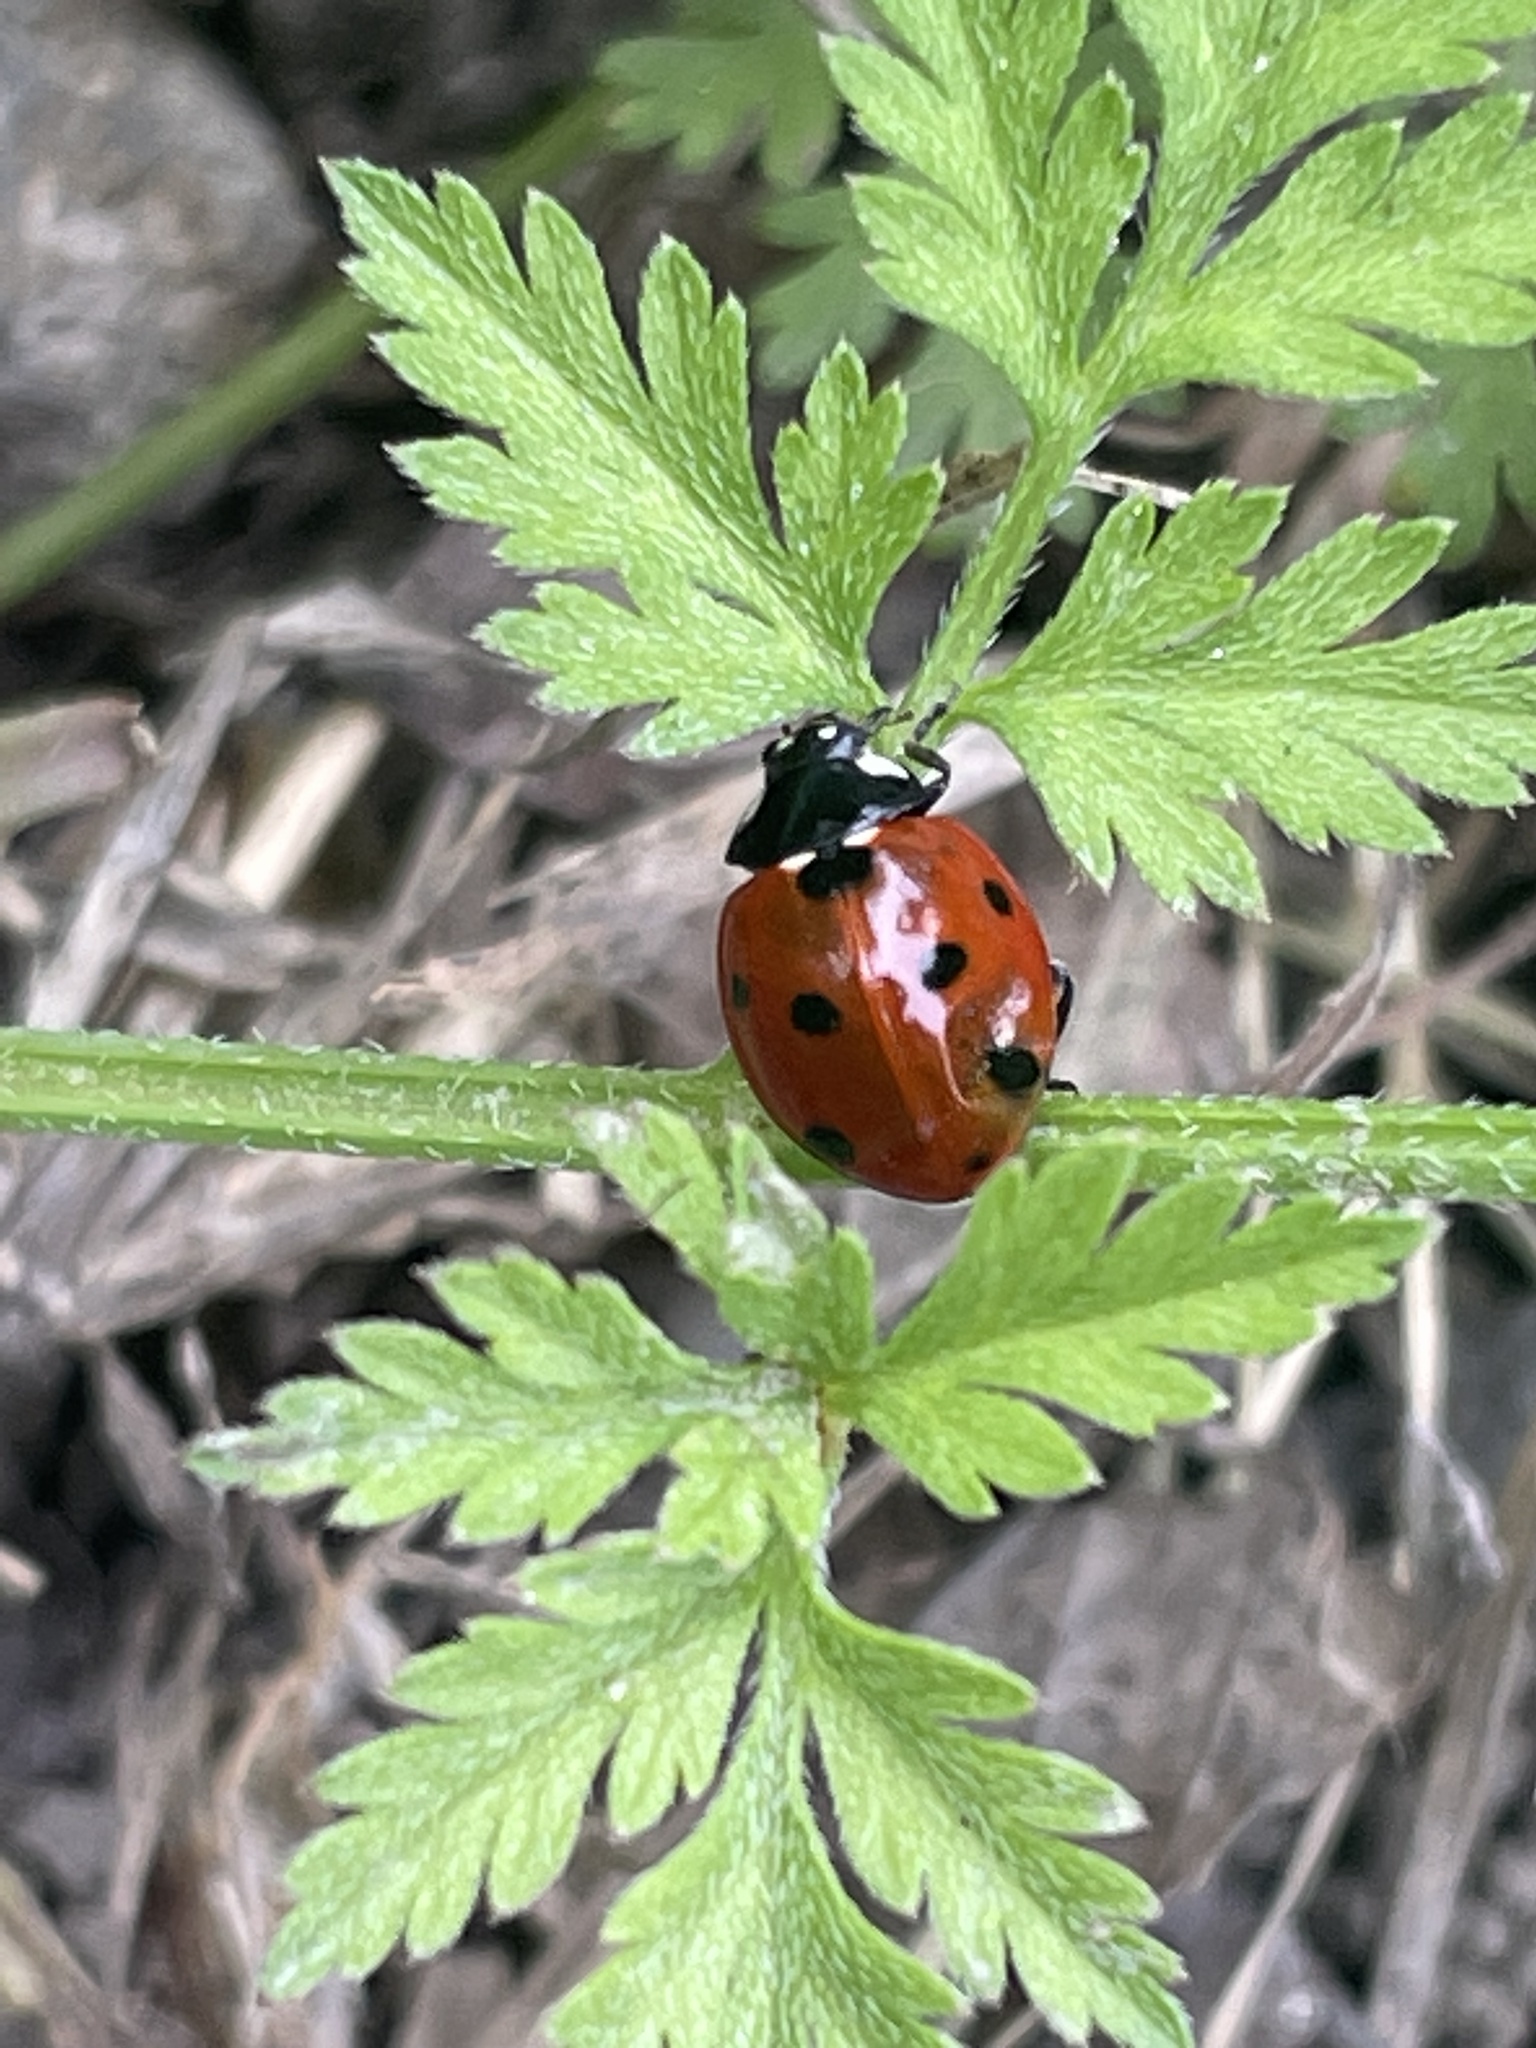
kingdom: Animalia
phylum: Arthropoda
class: Insecta
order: Coleoptera
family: Coccinellidae
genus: Coccinella
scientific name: Coccinella septempunctata
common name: Sevenspotted lady beetle
